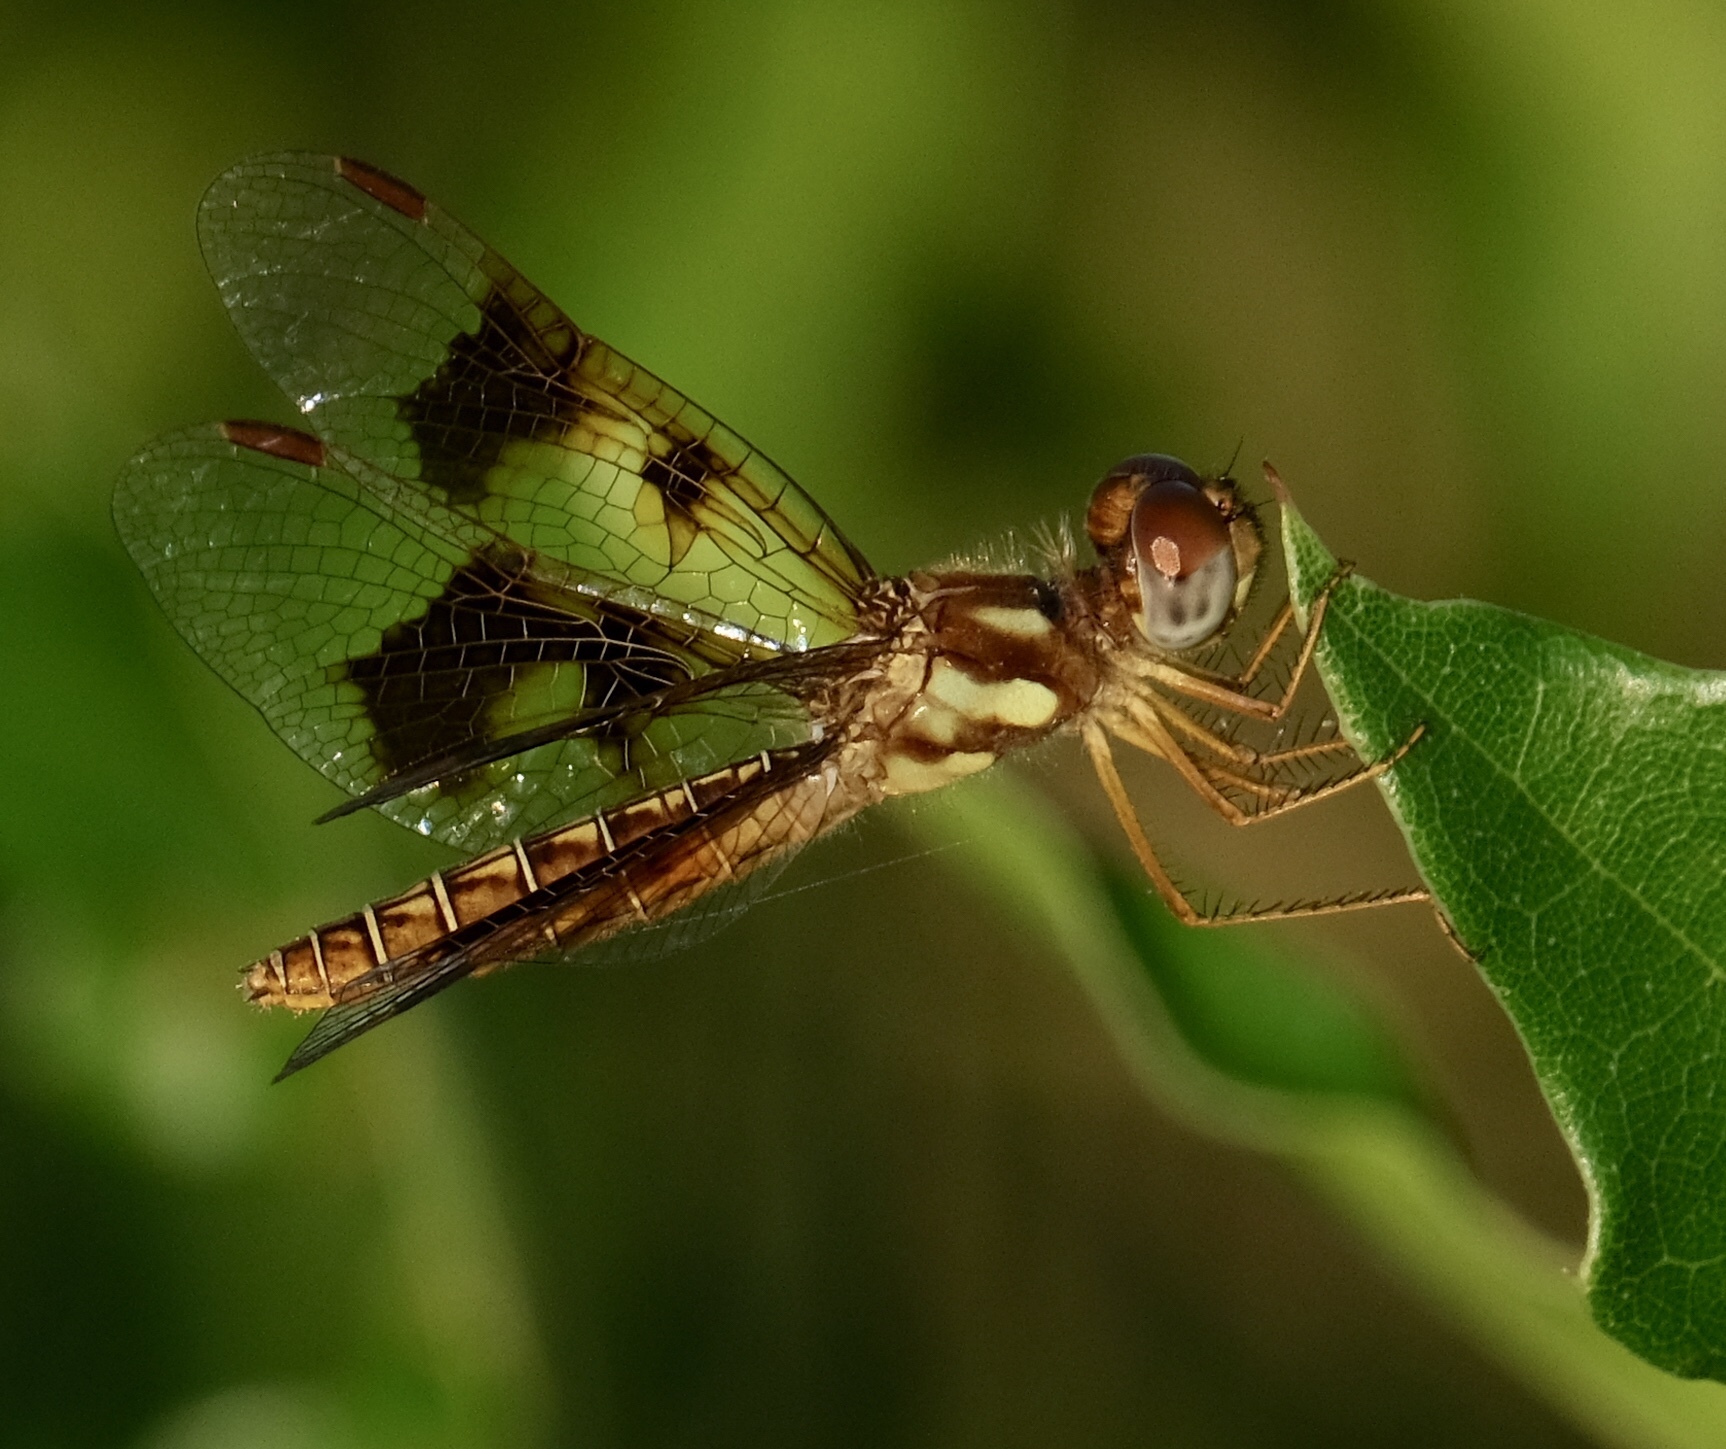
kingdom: Animalia
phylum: Arthropoda
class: Insecta
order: Odonata
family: Libellulidae
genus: Perithemis
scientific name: Perithemis tenera
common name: Eastern amberwing
